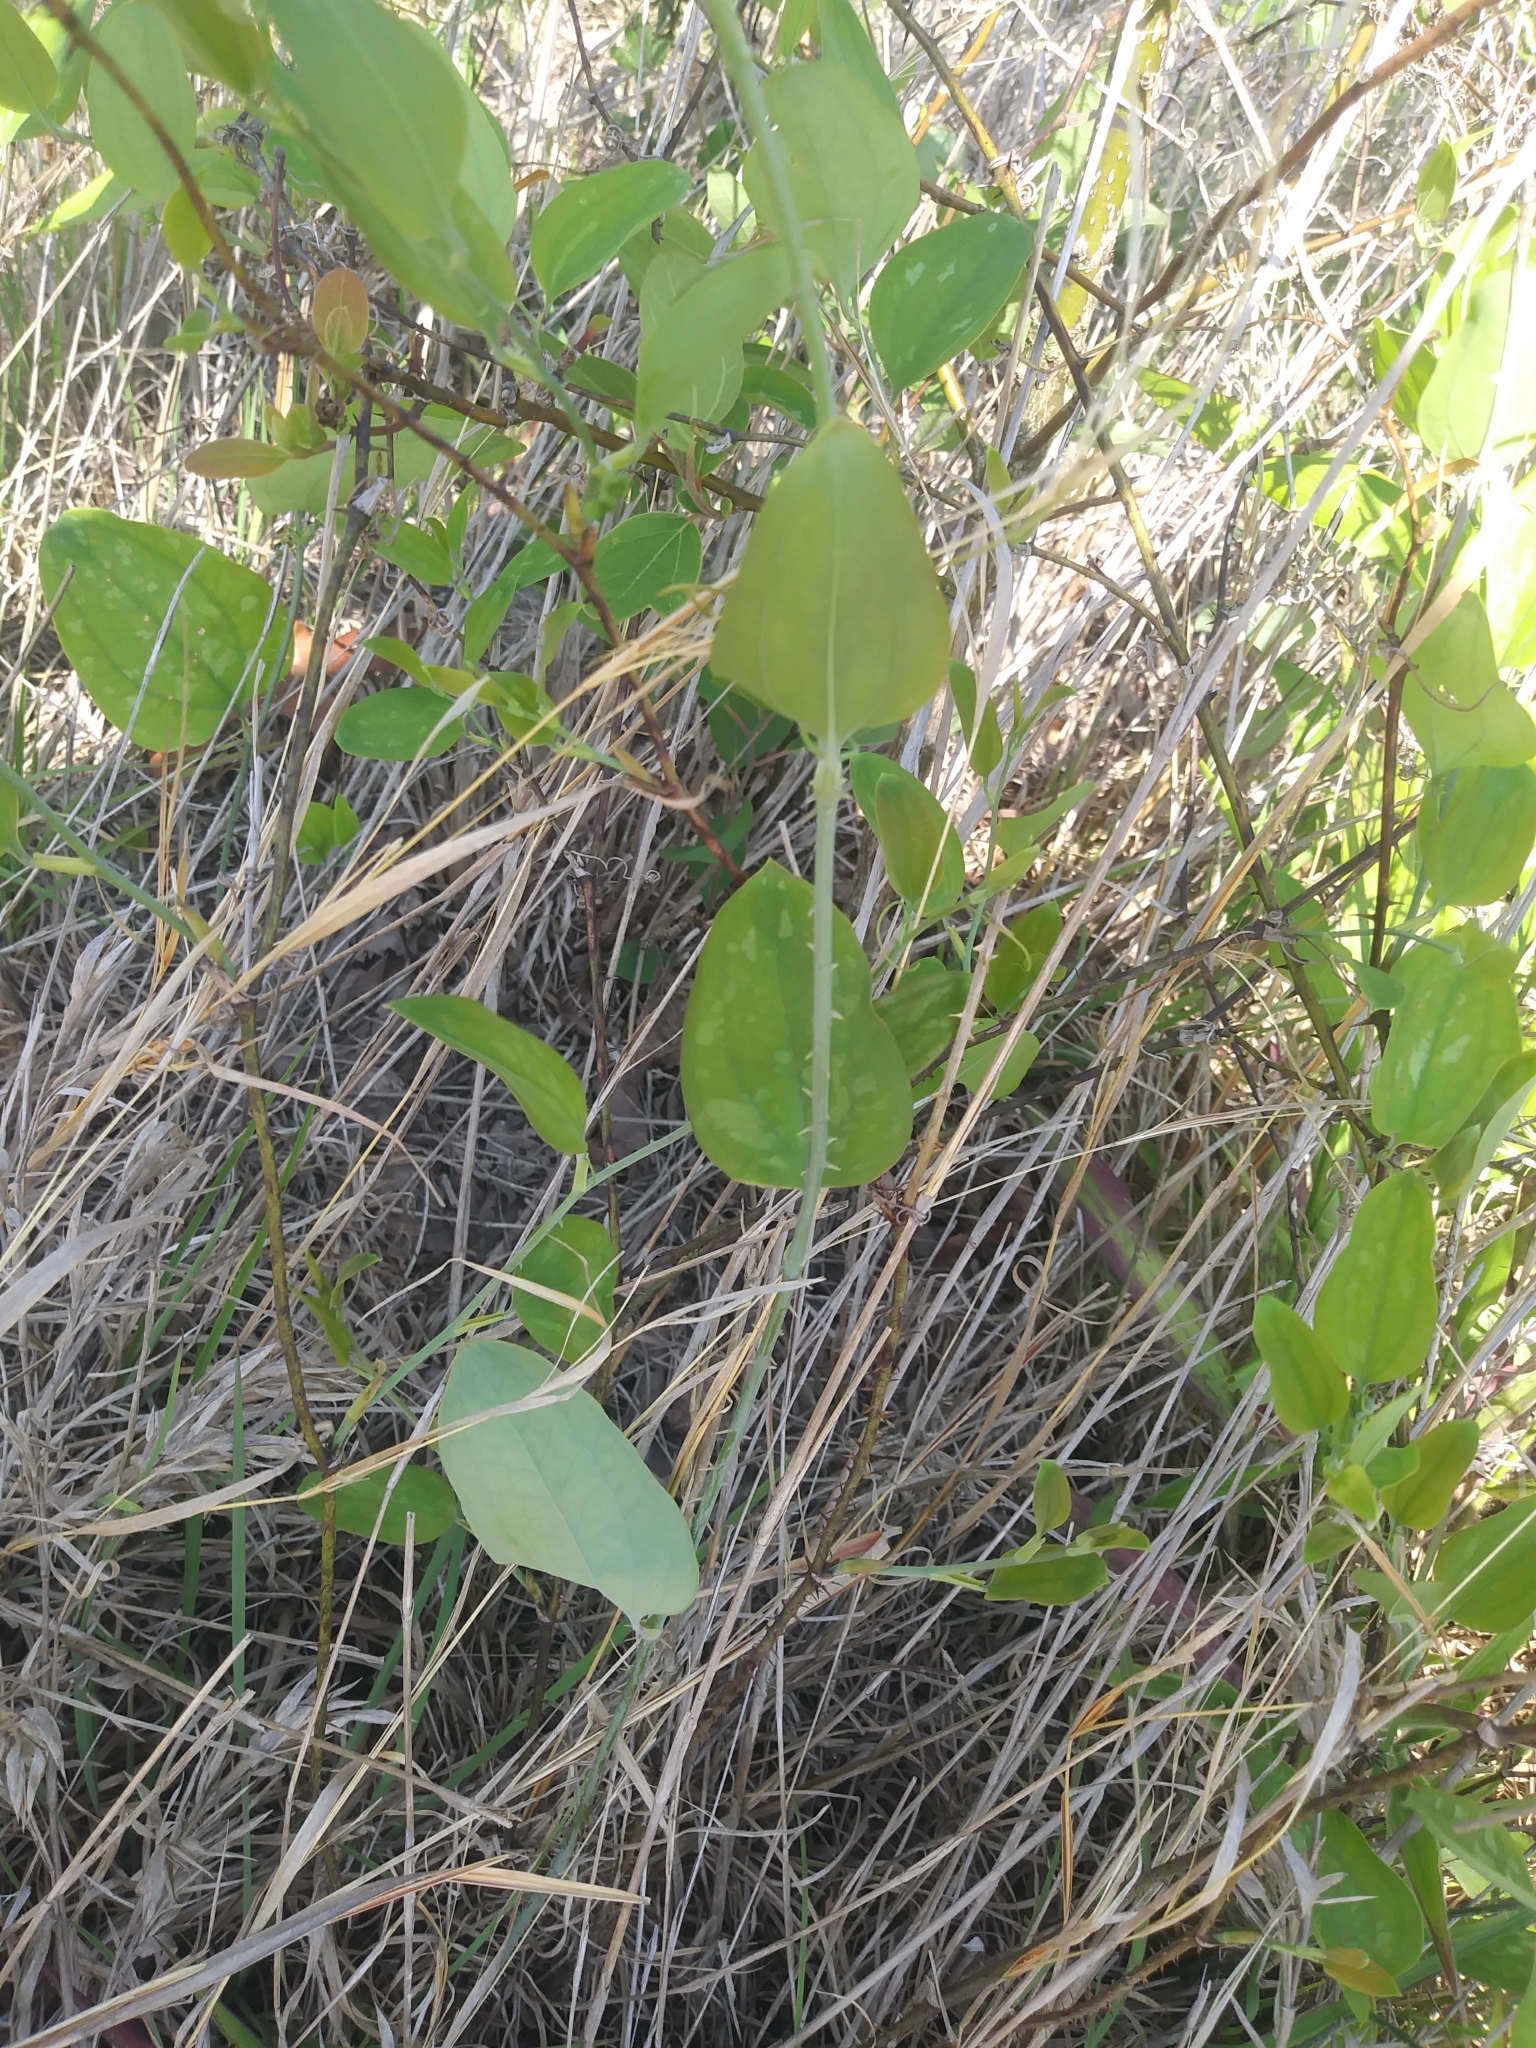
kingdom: Plantae
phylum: Tracheophyta
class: Liliopsida
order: Liliales
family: Smilacaceae
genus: Smilax
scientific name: Smilax glauca
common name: Cat greenbrier
